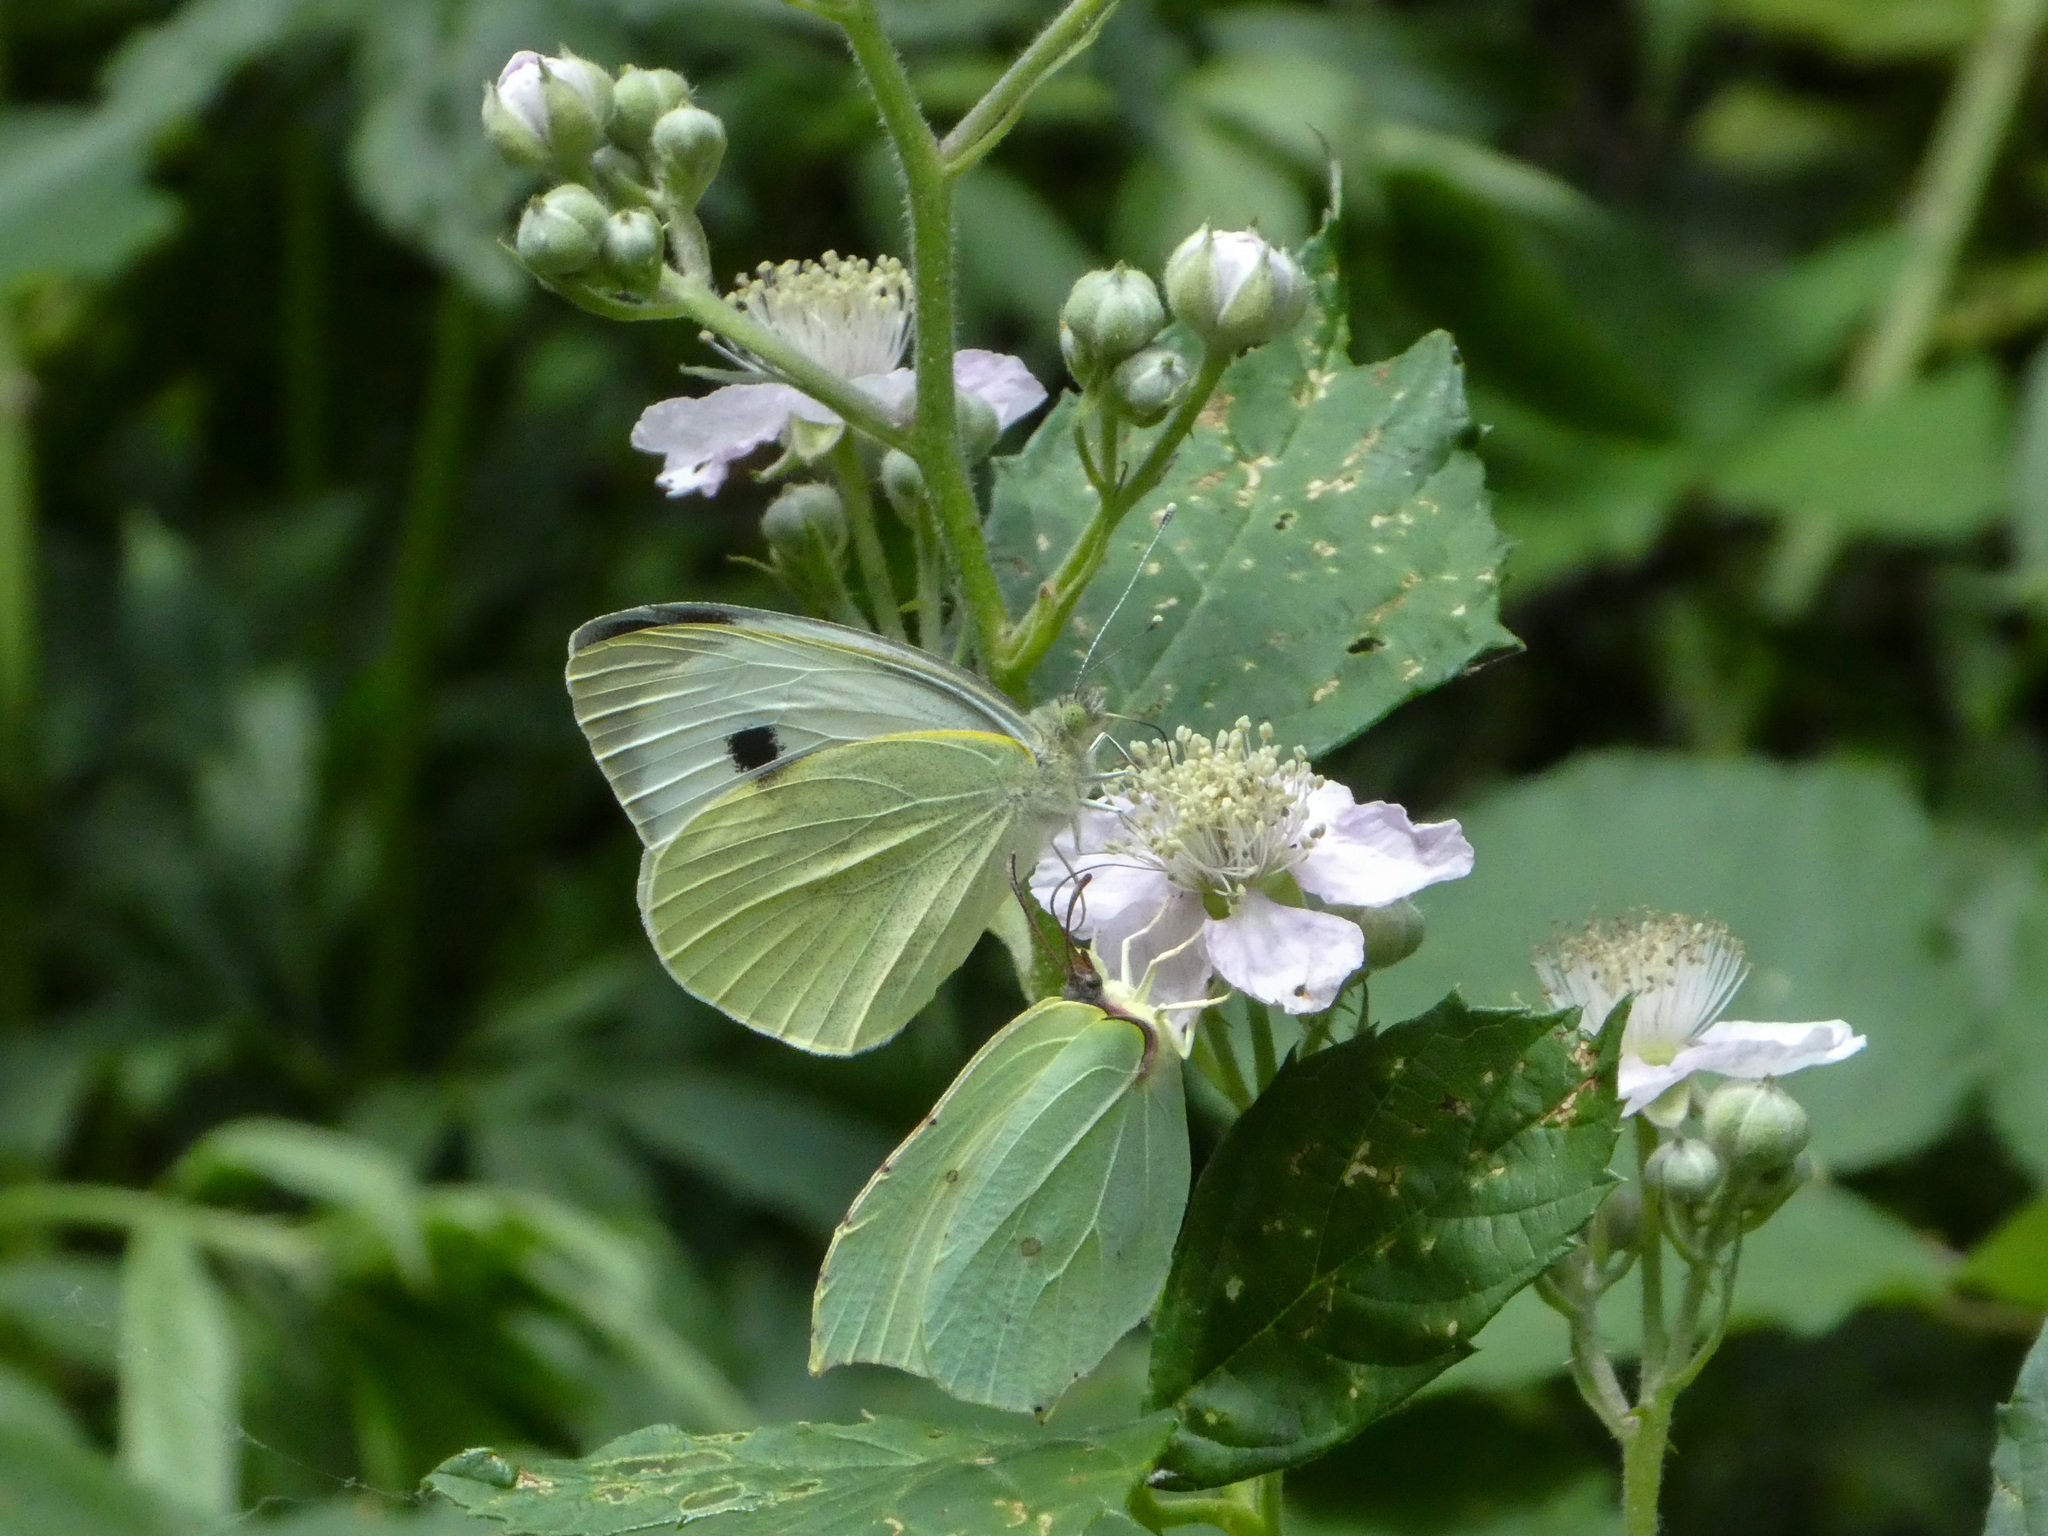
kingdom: Animalia
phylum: Arthropoda
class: Insecta
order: Lepidoptera
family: Pieridae
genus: Pieris
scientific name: Pieris brassicae
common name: Large white
